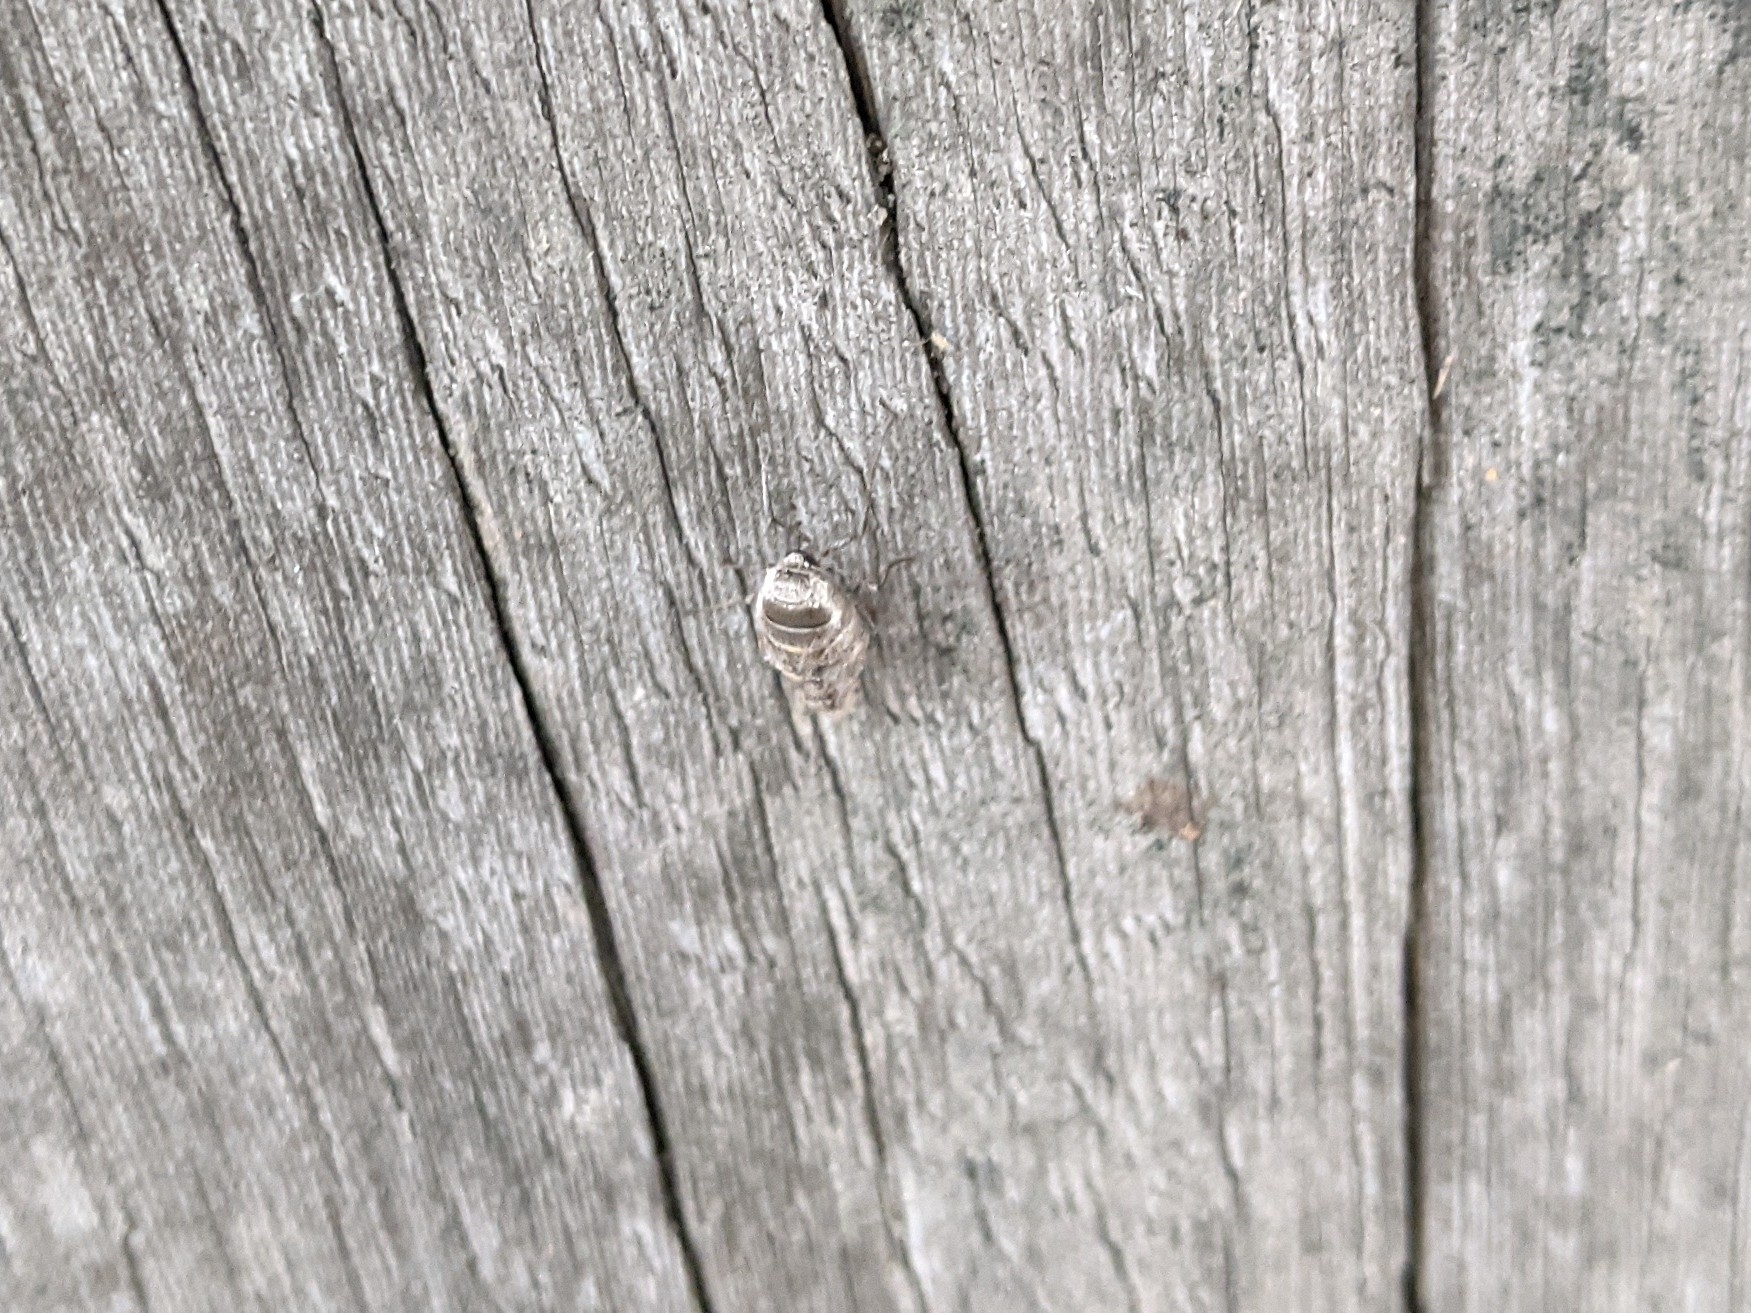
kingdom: Animalia
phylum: Arthropoda
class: Insecta
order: Lepidoptera
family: Geometridae
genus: Alsophila
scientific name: Alsophila pometaria
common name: Fall cankerworm
